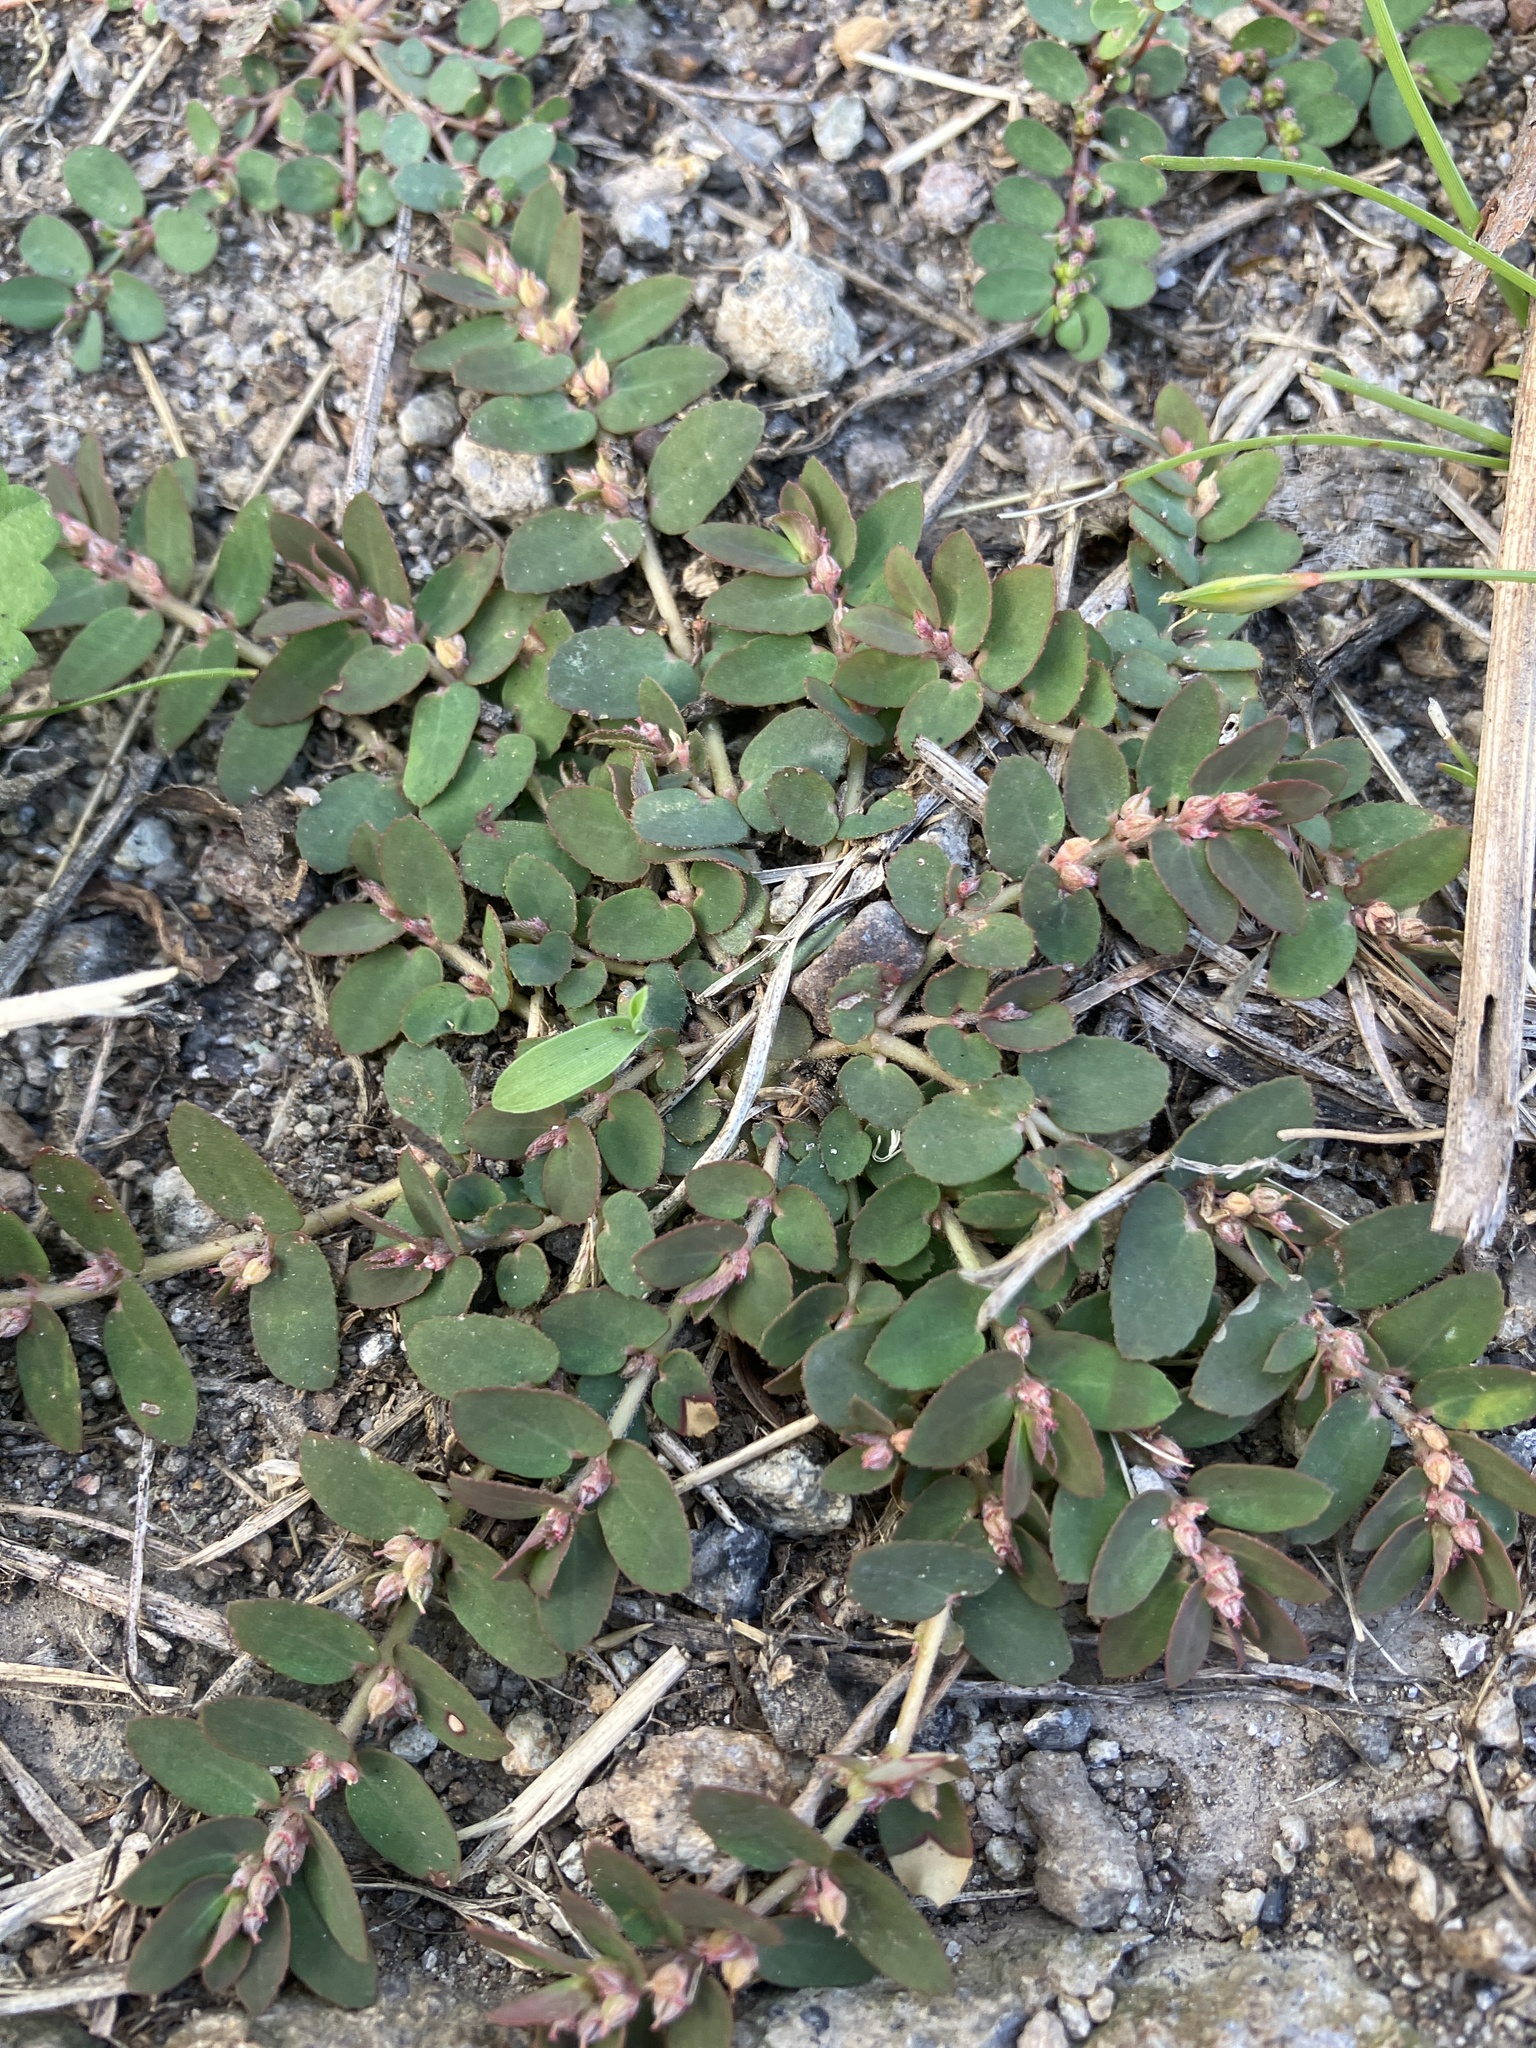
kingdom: Plantae
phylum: Tracheophyta
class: Magnoliopsida
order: Malpighiales
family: Euphorbiaceae
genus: Euphorbia
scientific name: Euphorbia thymifolia
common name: Gulf sandmat
